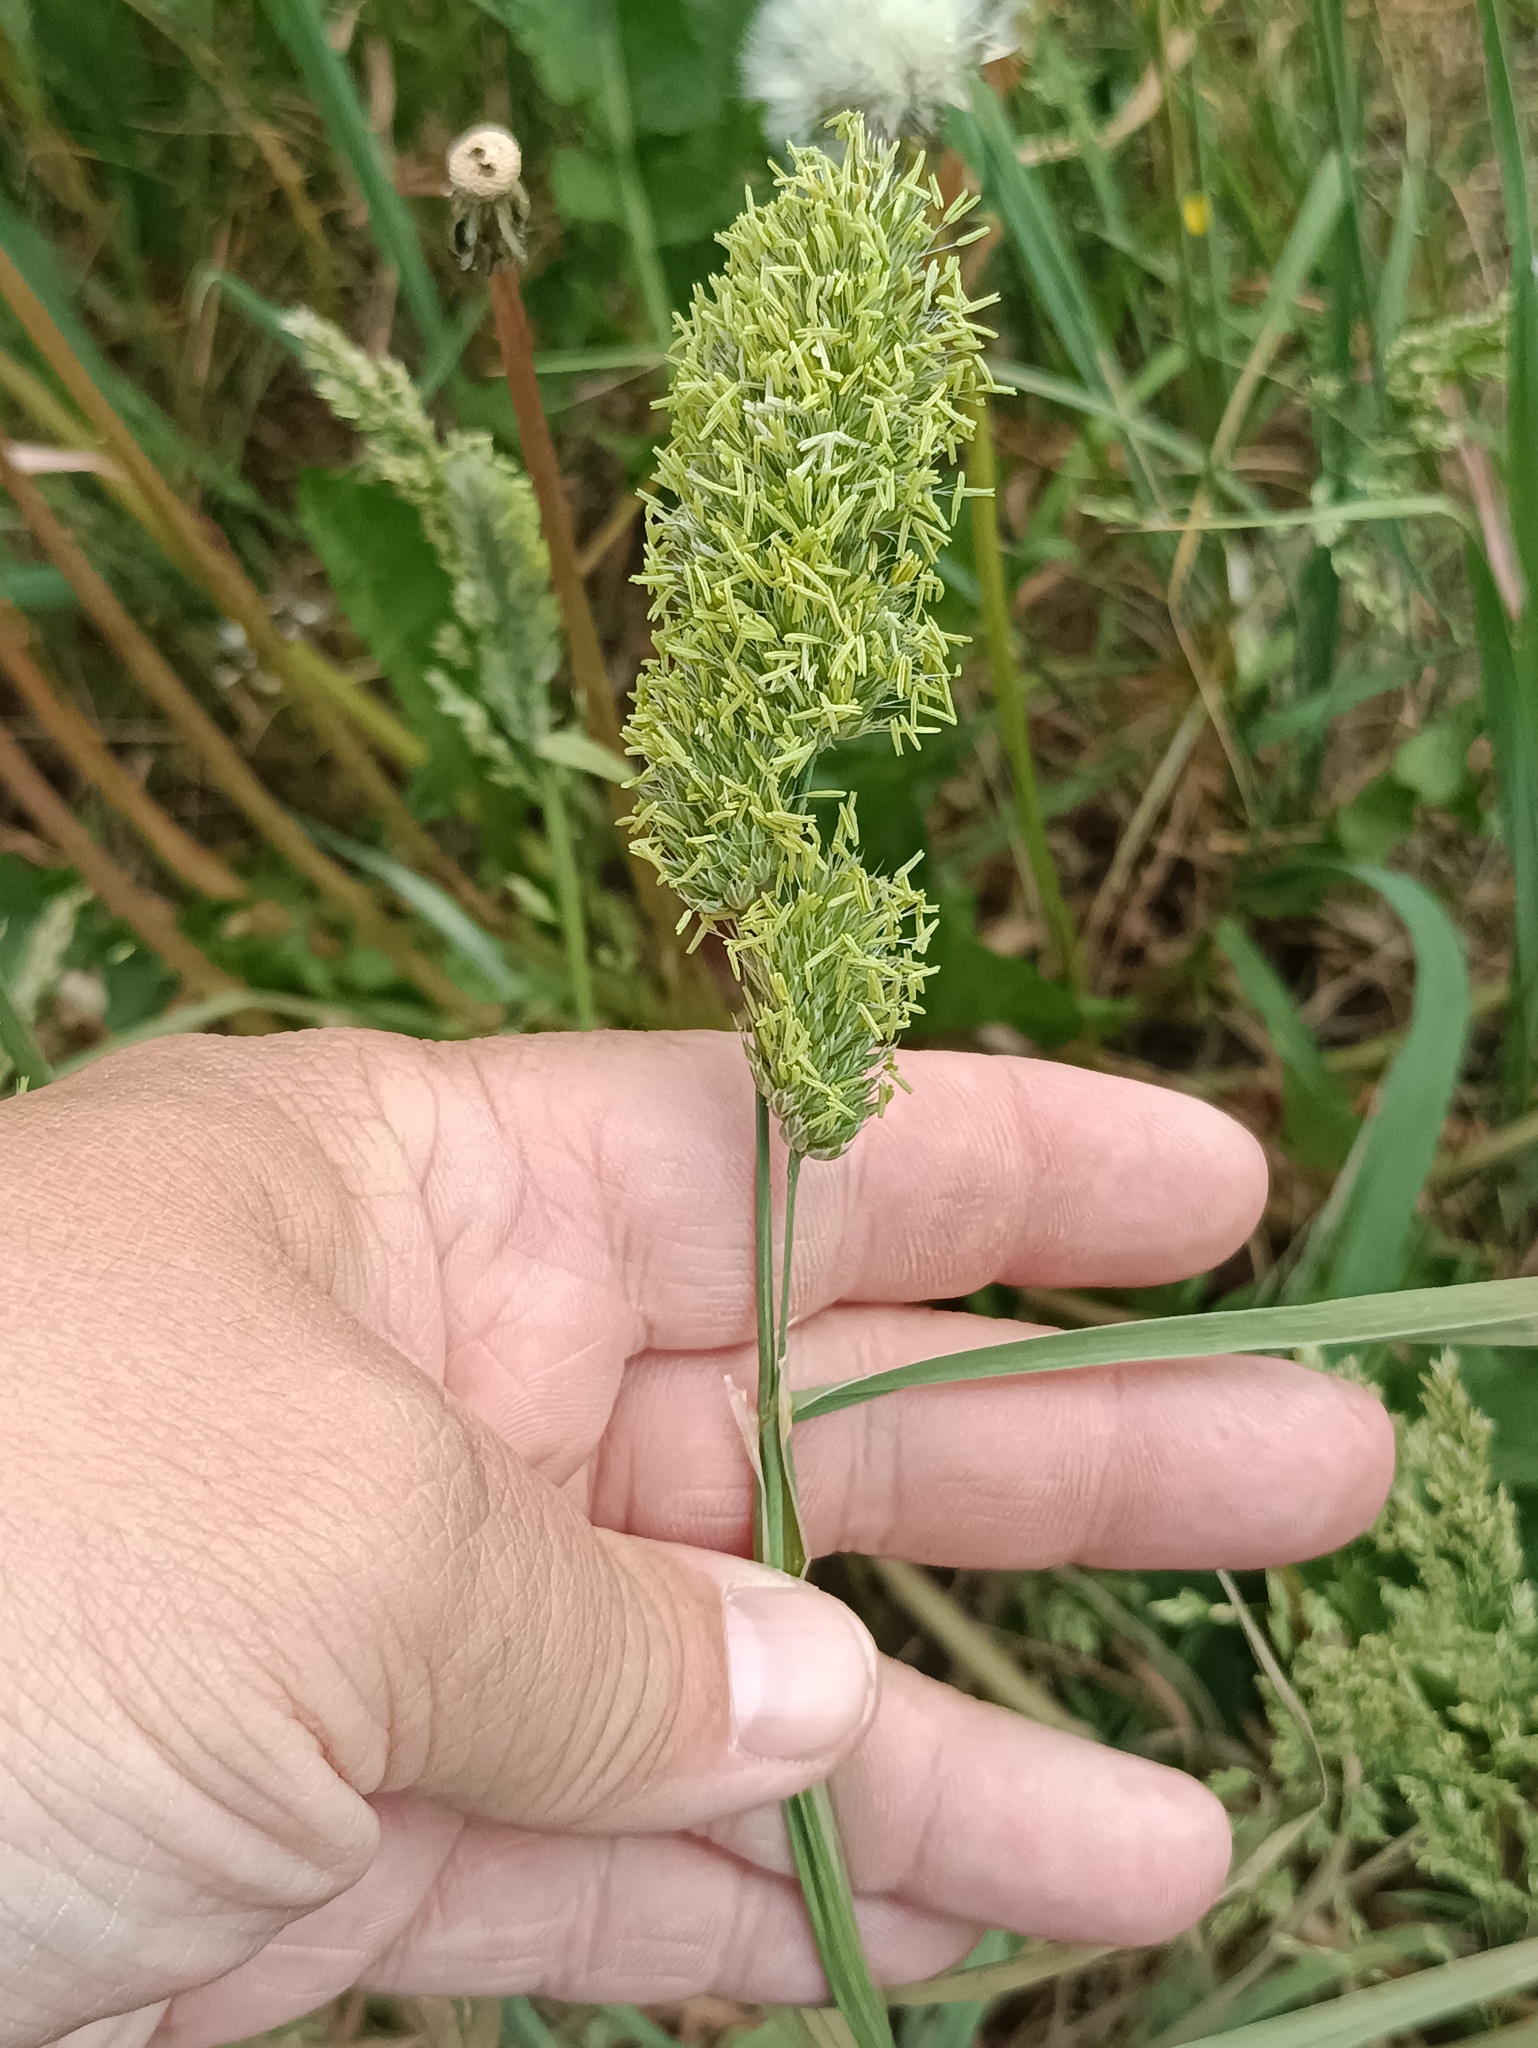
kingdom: Plantae
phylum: Tracheophyta
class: Liliopsida
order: Poales
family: Poaceae
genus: Dactylis
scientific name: Dactylis glomerata
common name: Orchardgrass
